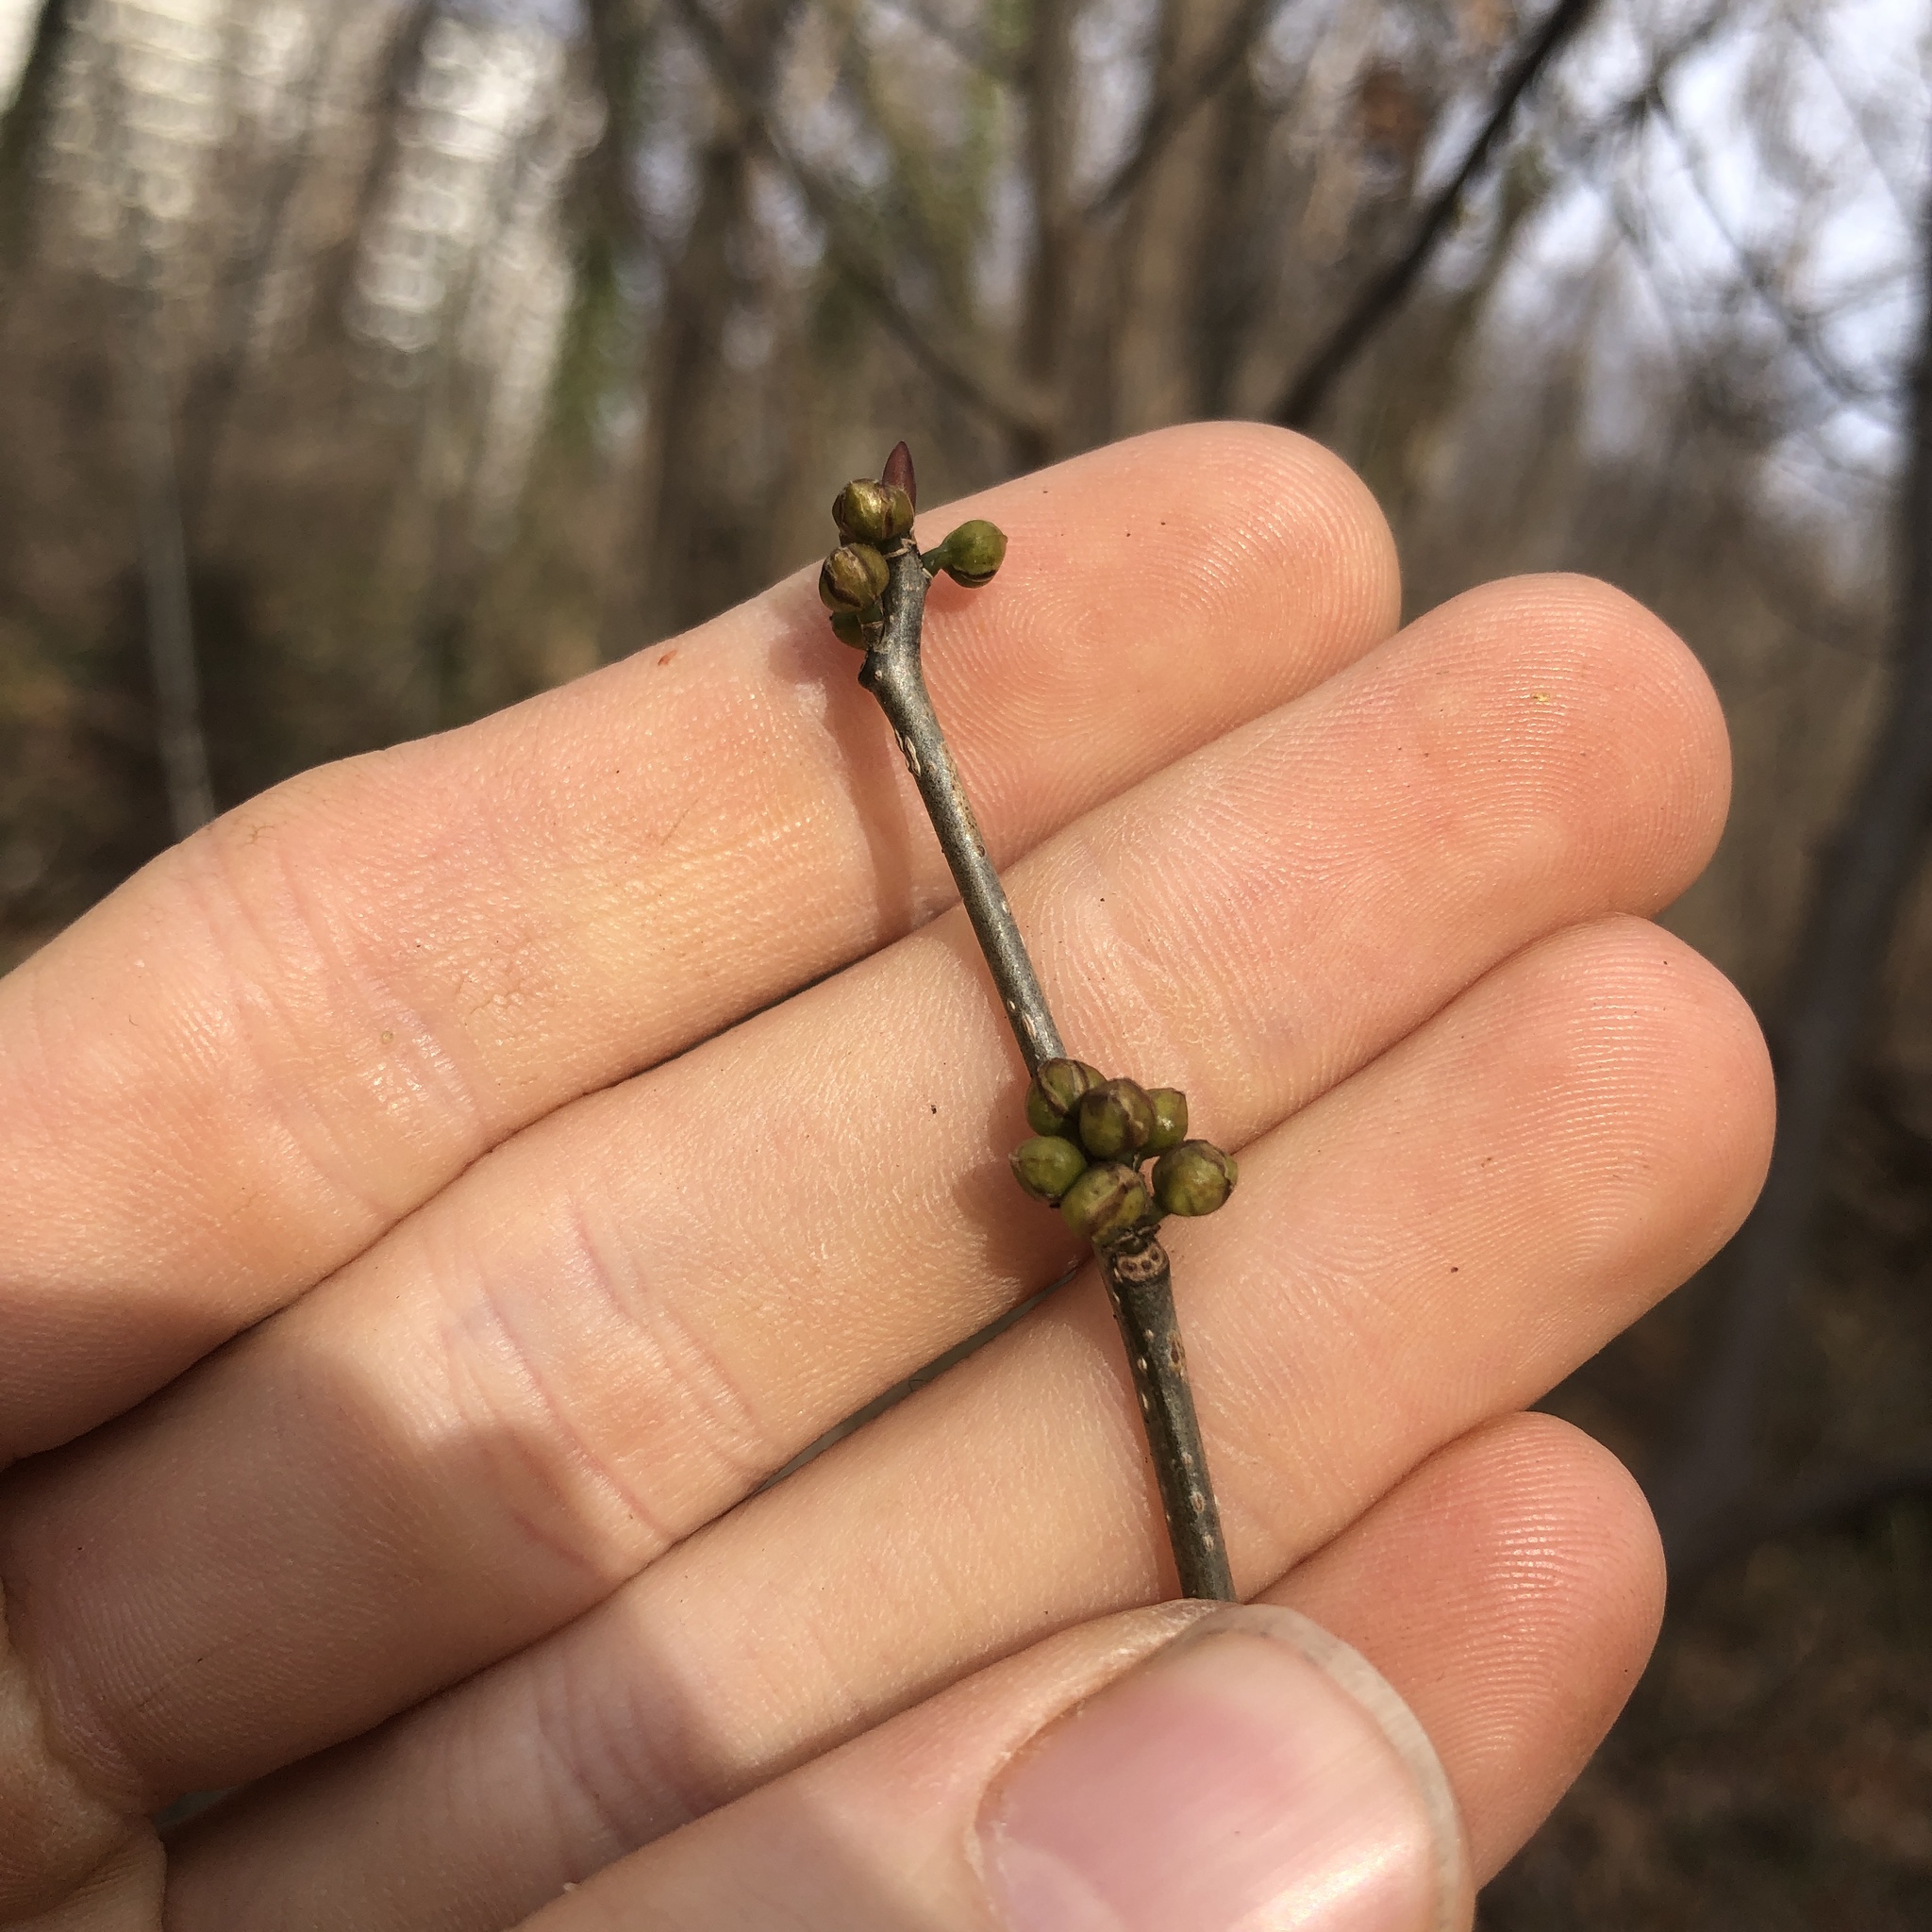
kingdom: Plantae
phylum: Tracheophyta
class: Magnoliopsida
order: Laurales
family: Lauraceae
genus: Lindera
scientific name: Lindera benzoin
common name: Spicebush
